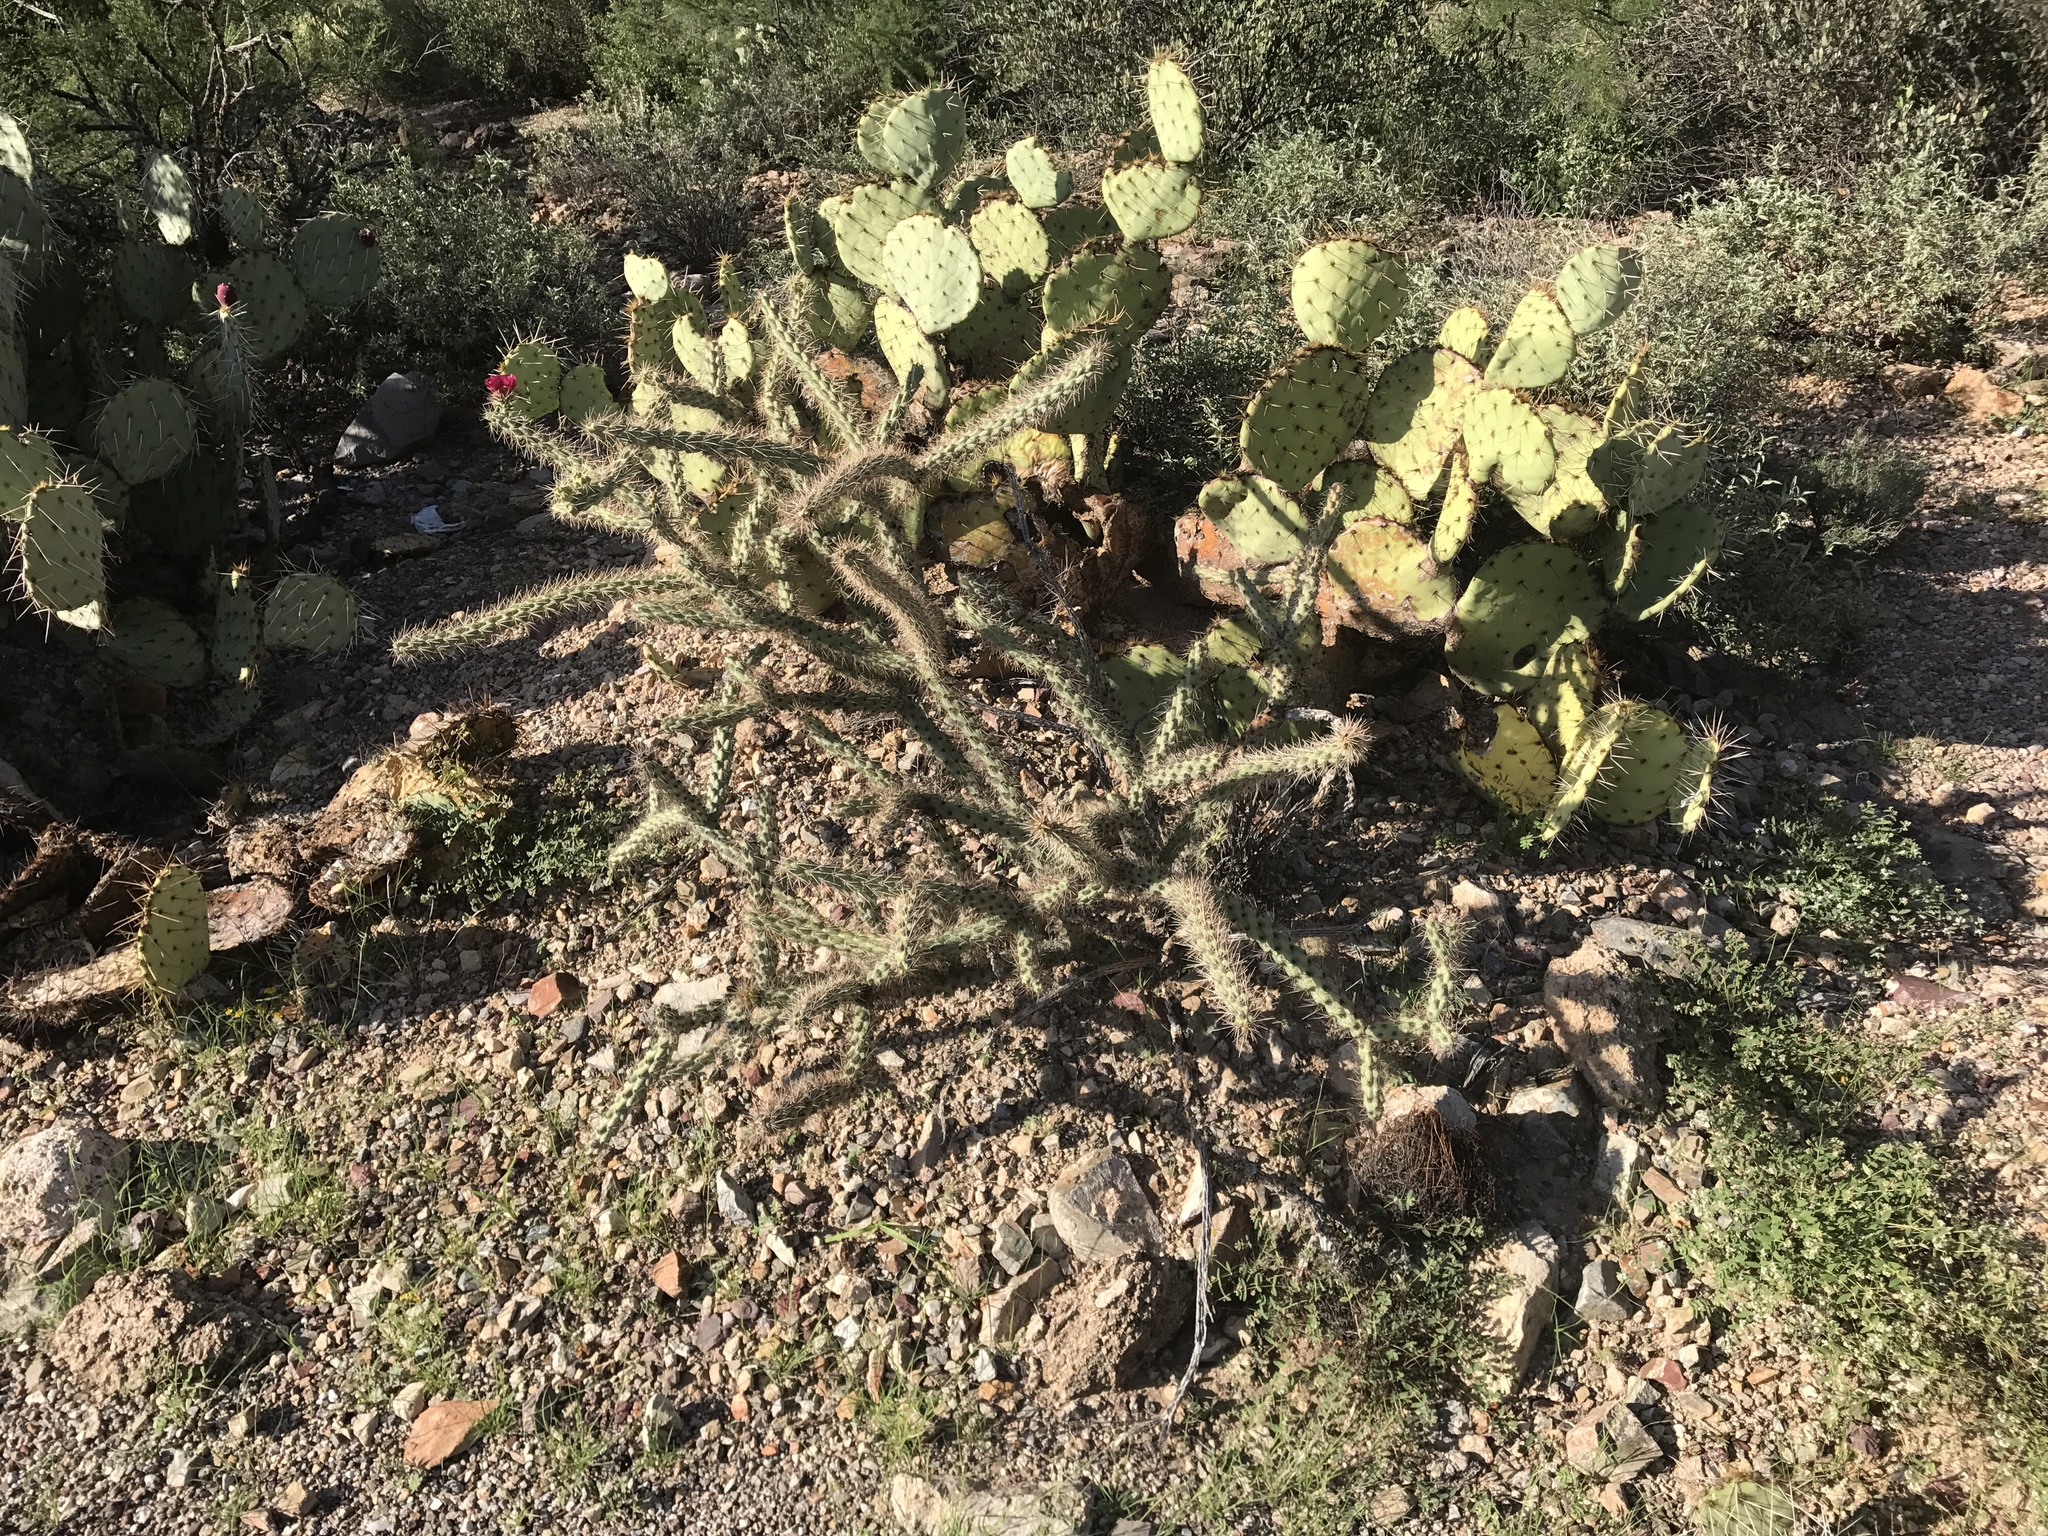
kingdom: Plantae
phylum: Tracheophyta
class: Magnoliopsida
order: Caryophyllales
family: Cactaceae
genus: Cylindropuntia
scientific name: Cylindropuntia thurberi
